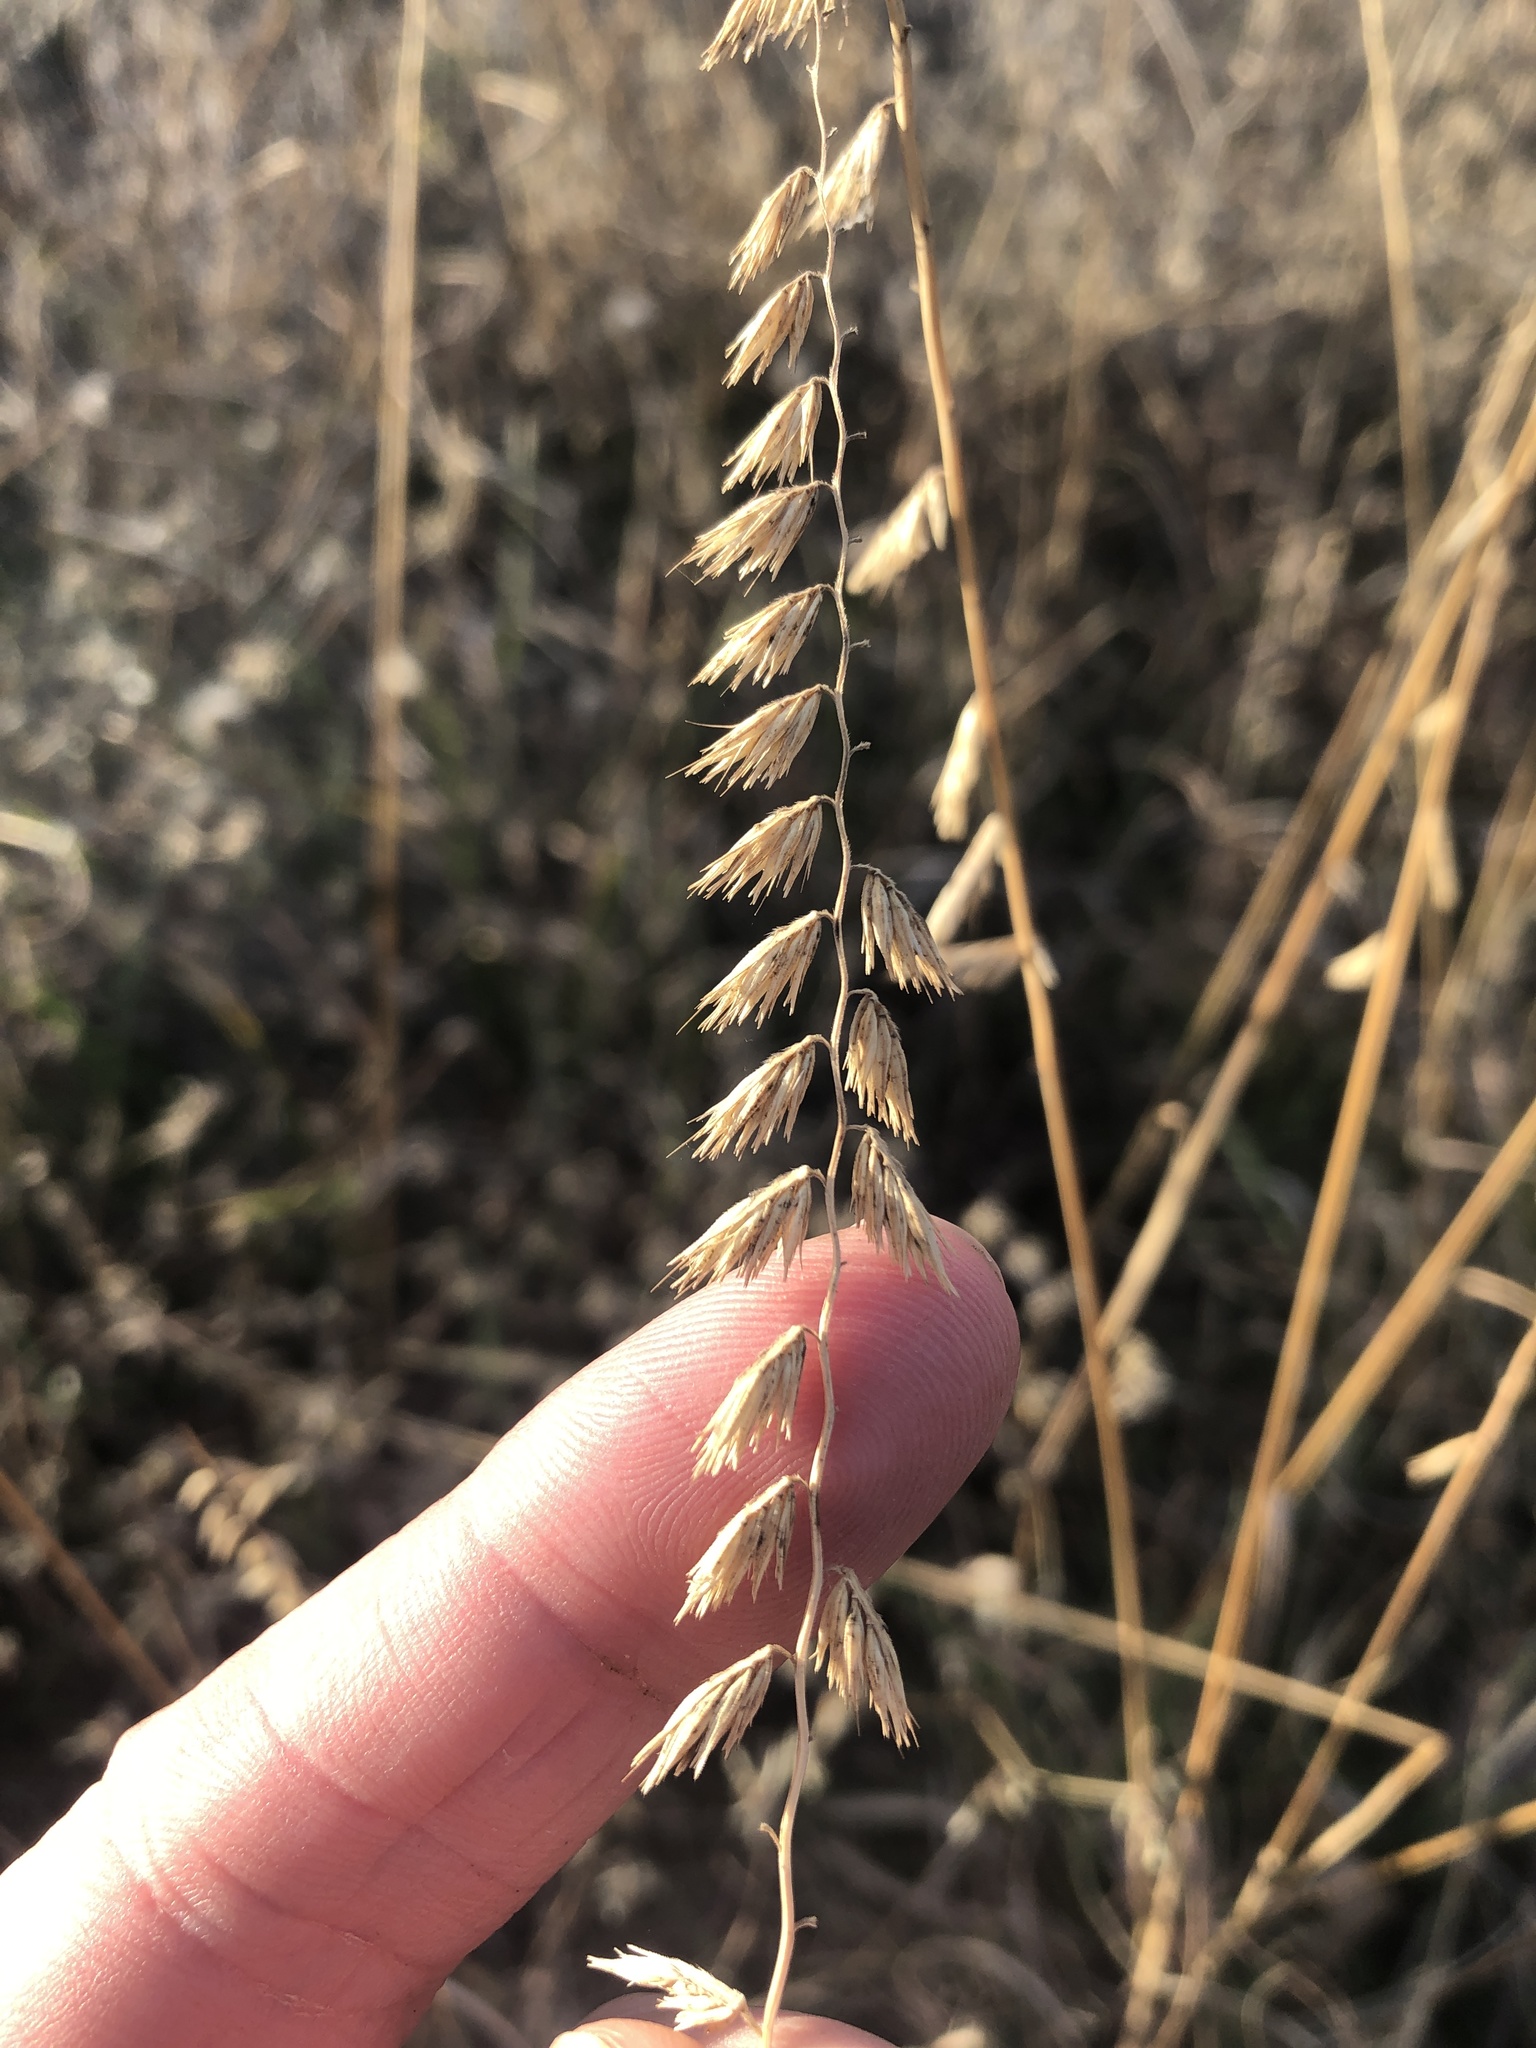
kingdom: Plantae
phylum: Tracheophyta
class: Liliopsida
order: Poales
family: Poaceae
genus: Bouteloua
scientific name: Bouteloua curtipendula
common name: Side-oats grama
